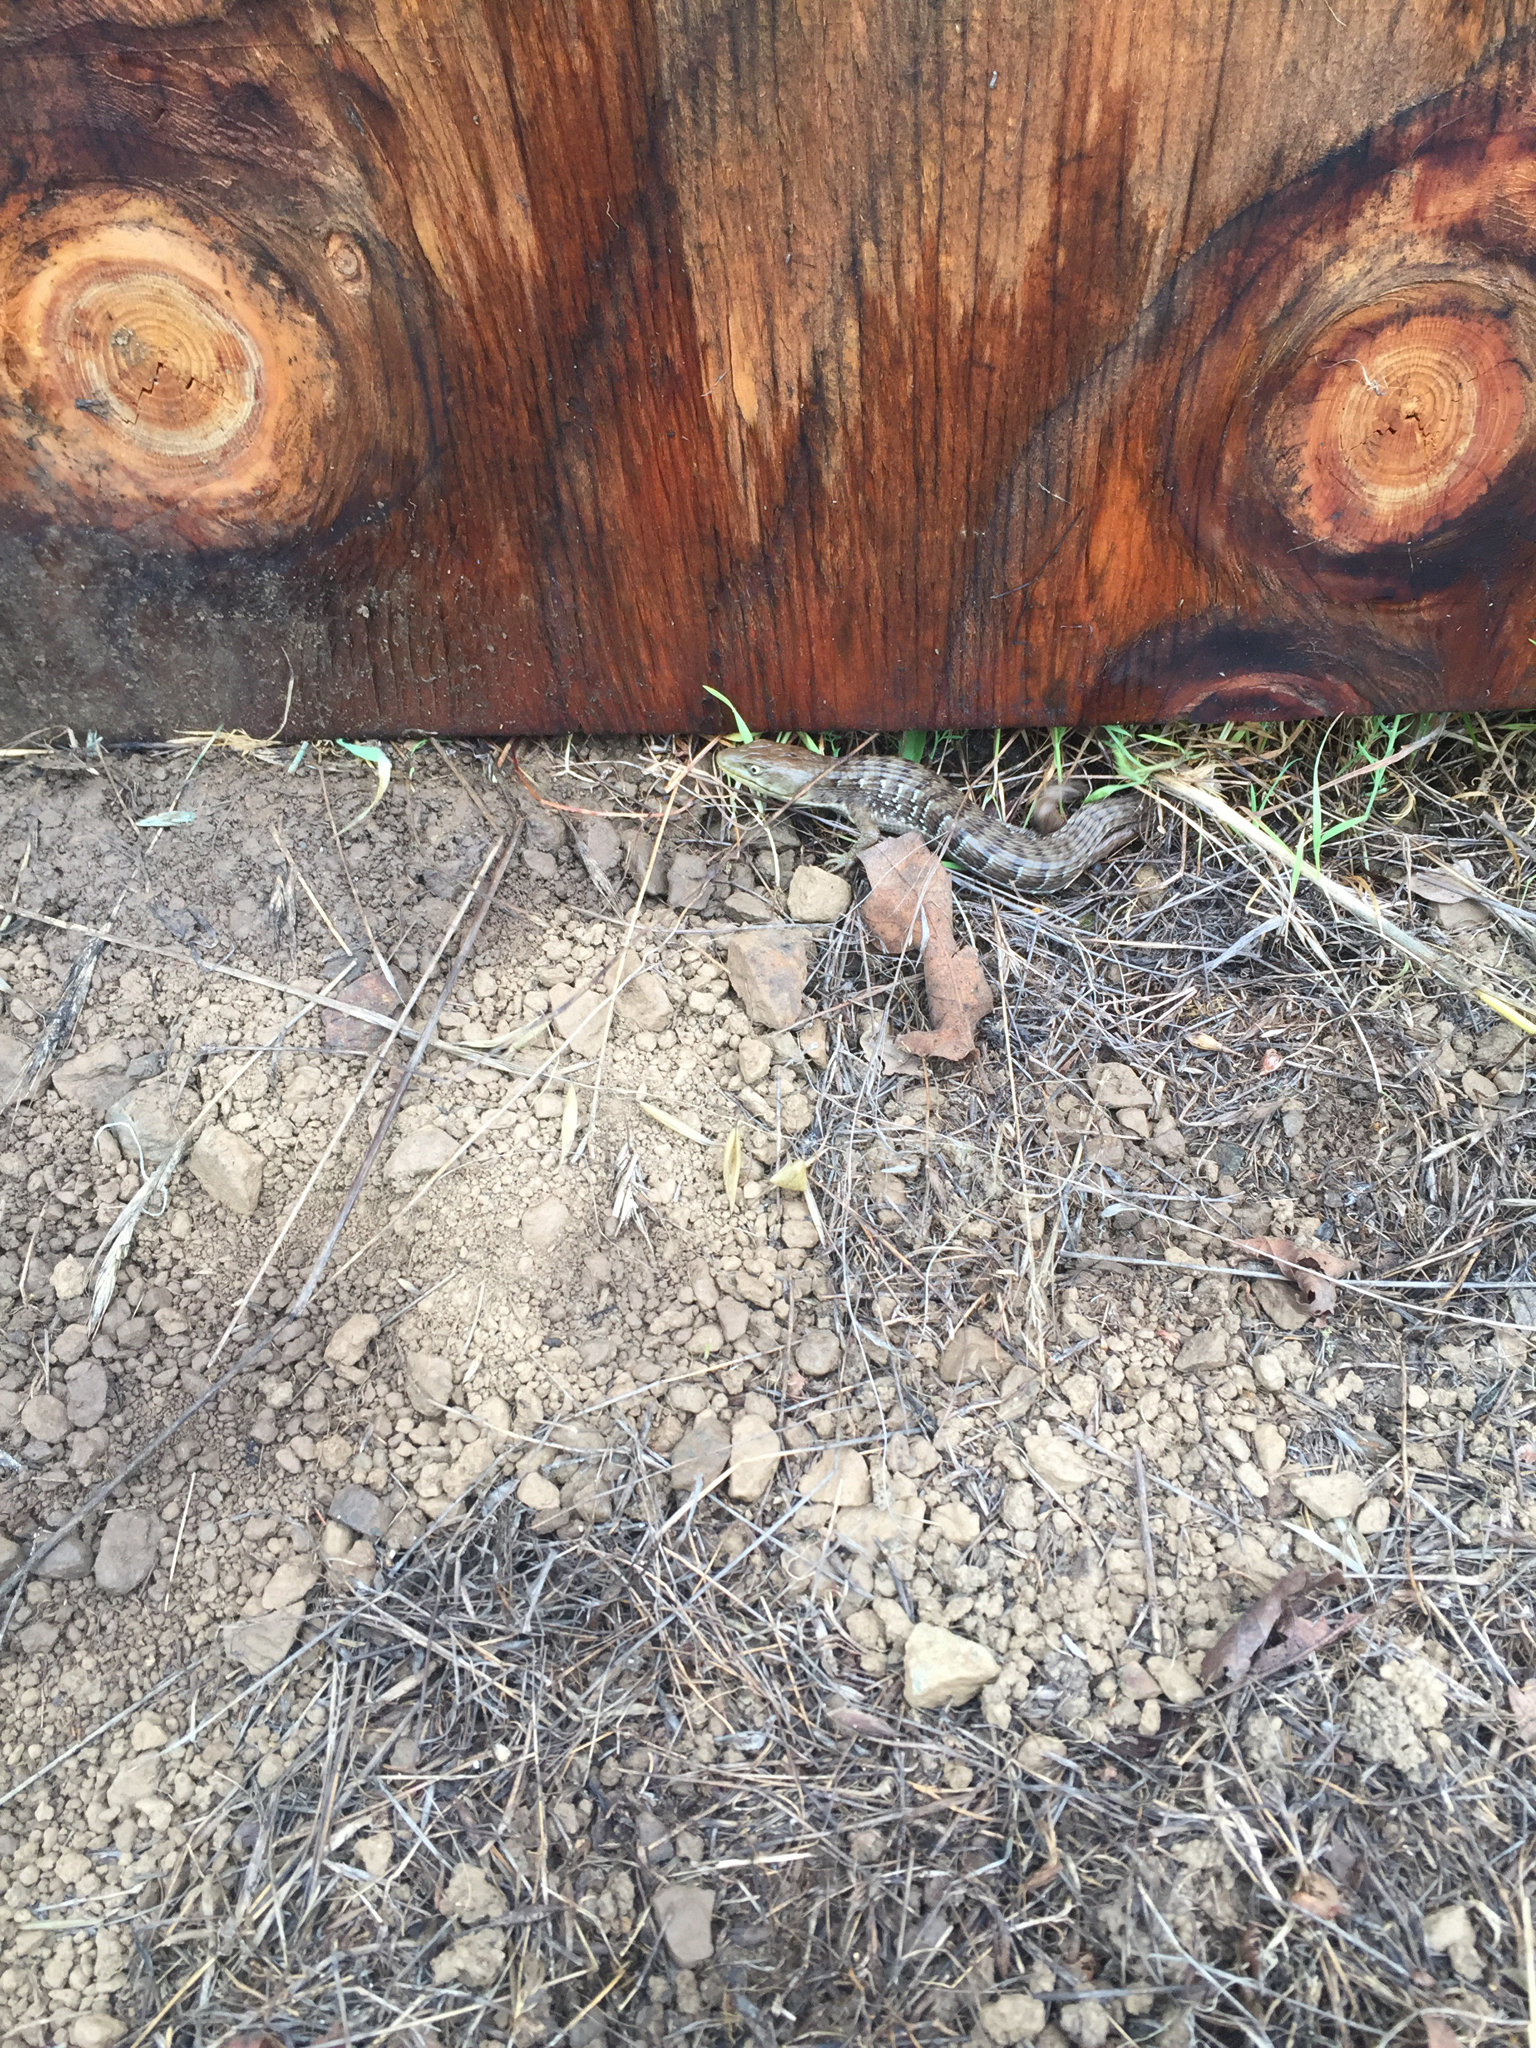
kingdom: Animalia
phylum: Chordata
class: Squamata
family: Anguidae
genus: Elgaria
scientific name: Elgaria multicarinata
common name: Southern alligator lizard
